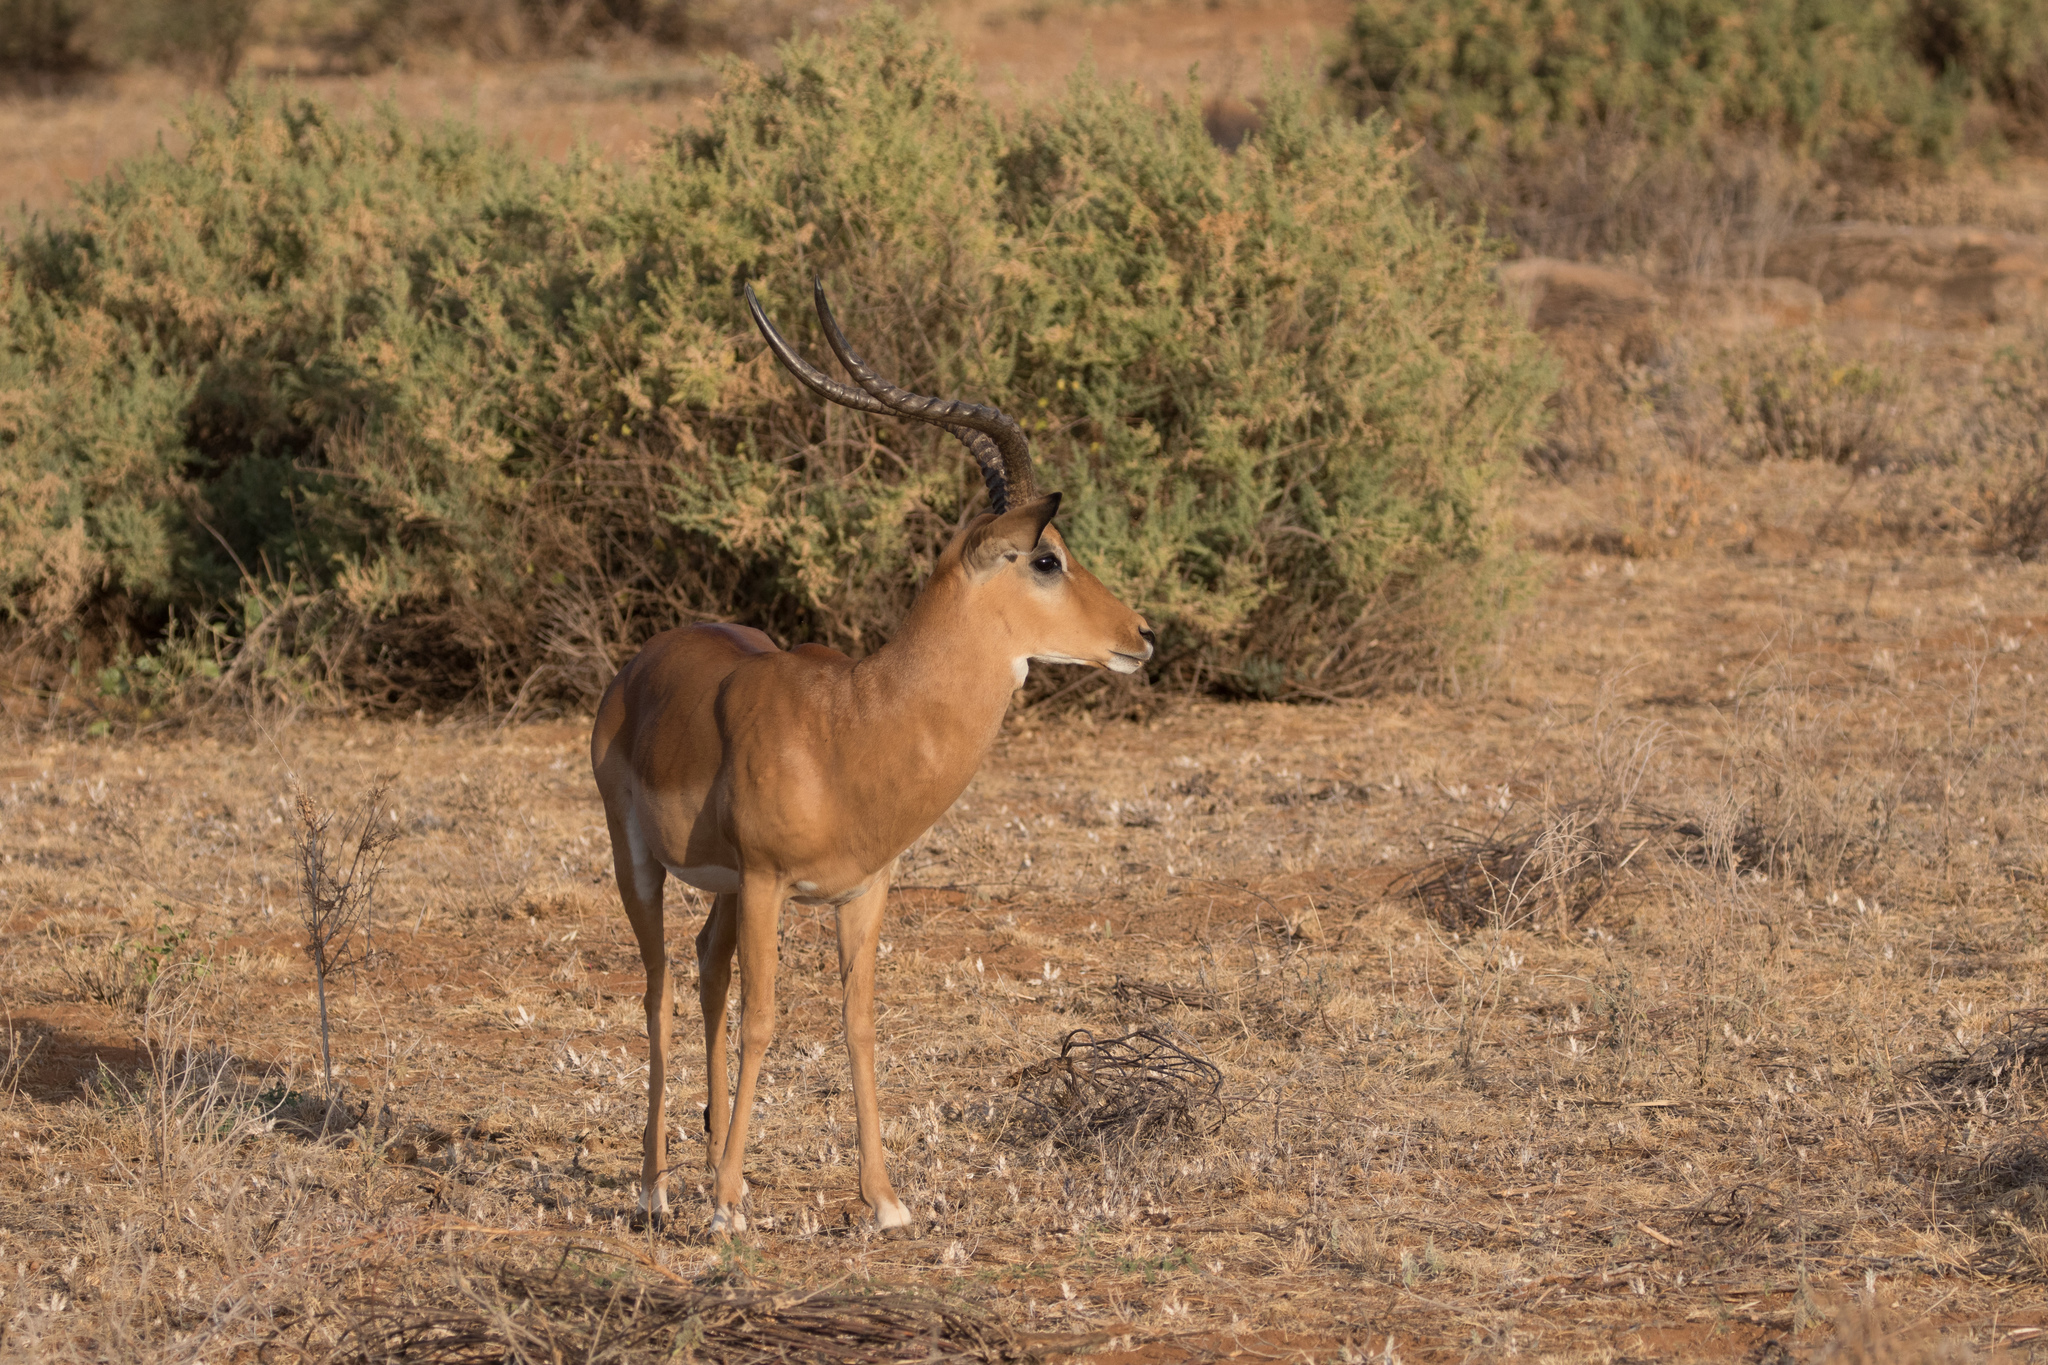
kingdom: Animalia
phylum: Chordata
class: Mammalia
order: Artiodactyla
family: Bovidae
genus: Aepyceros
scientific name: Aepyceros melampus
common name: Impala
